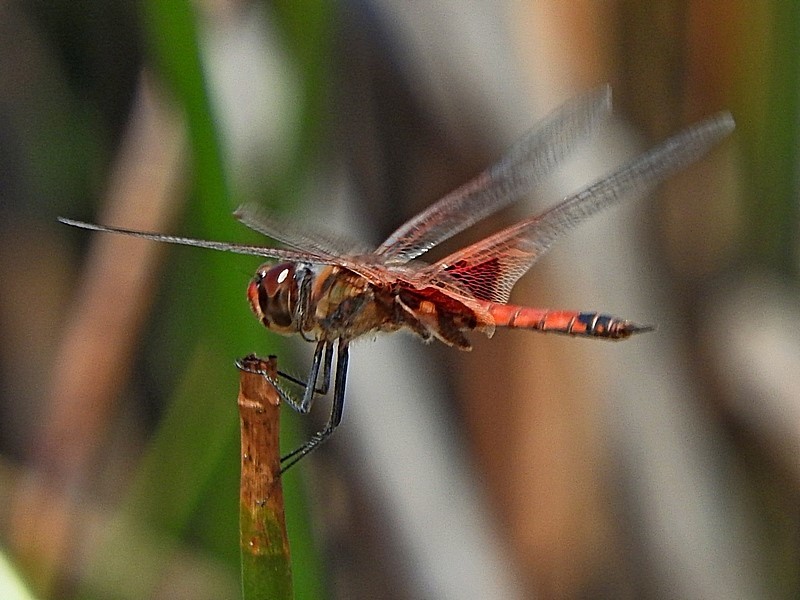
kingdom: Animalia
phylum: Arthropoda
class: Insecta
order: Odonata
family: Libellulidae
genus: Tramea
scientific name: Tramea loewii
